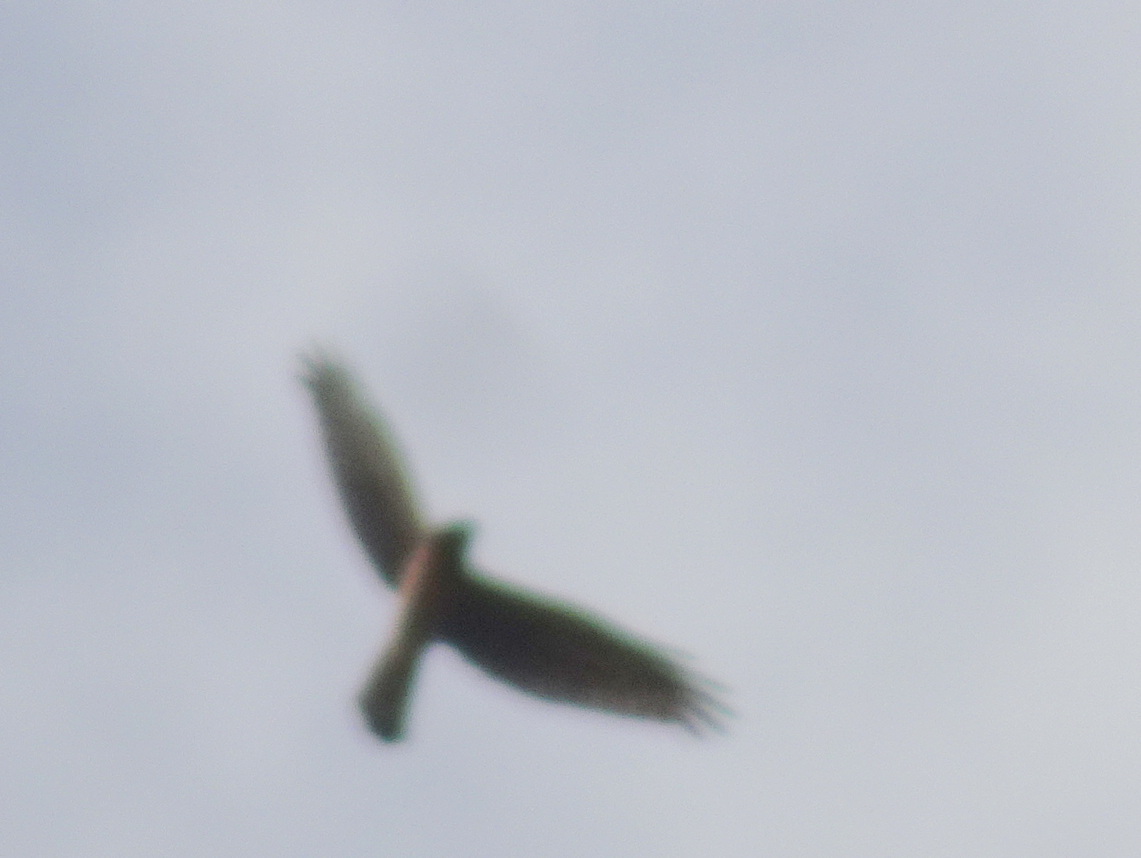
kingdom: Animalia
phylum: Chordata
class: Aves
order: Accipitriformes
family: Accipitridae
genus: Circus
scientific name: Circus cyaneus
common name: Hen harrier
